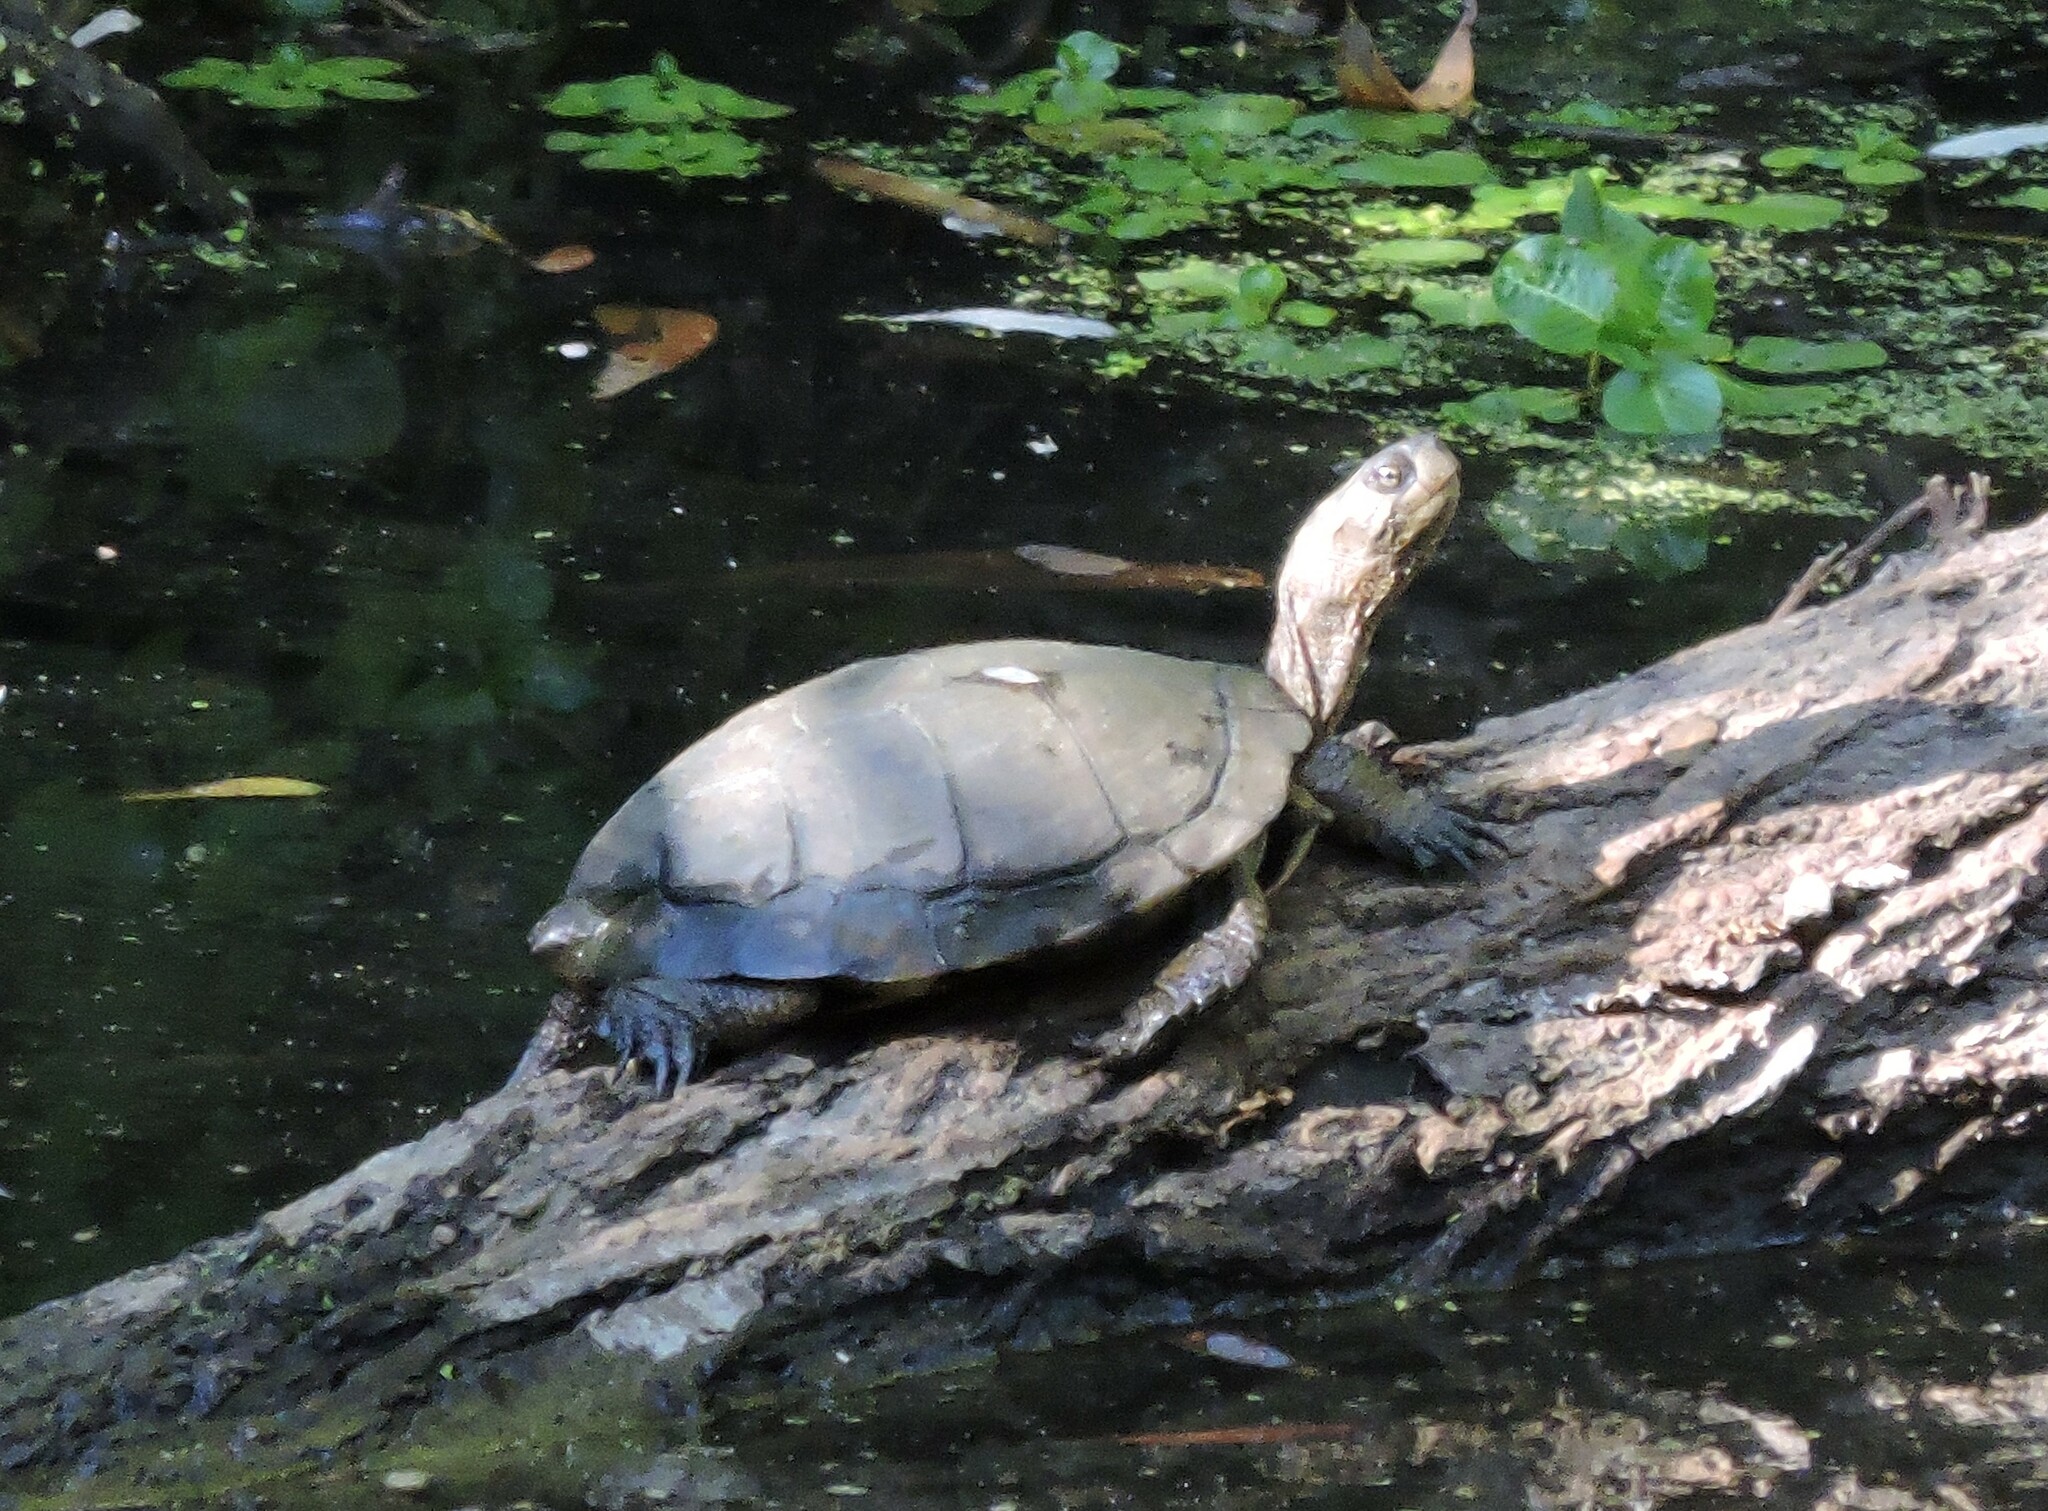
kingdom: Animalia
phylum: Chordata
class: Testudines
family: Emydidae
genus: Actinemys
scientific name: Actinemys marmorata
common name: Western pond turtle
